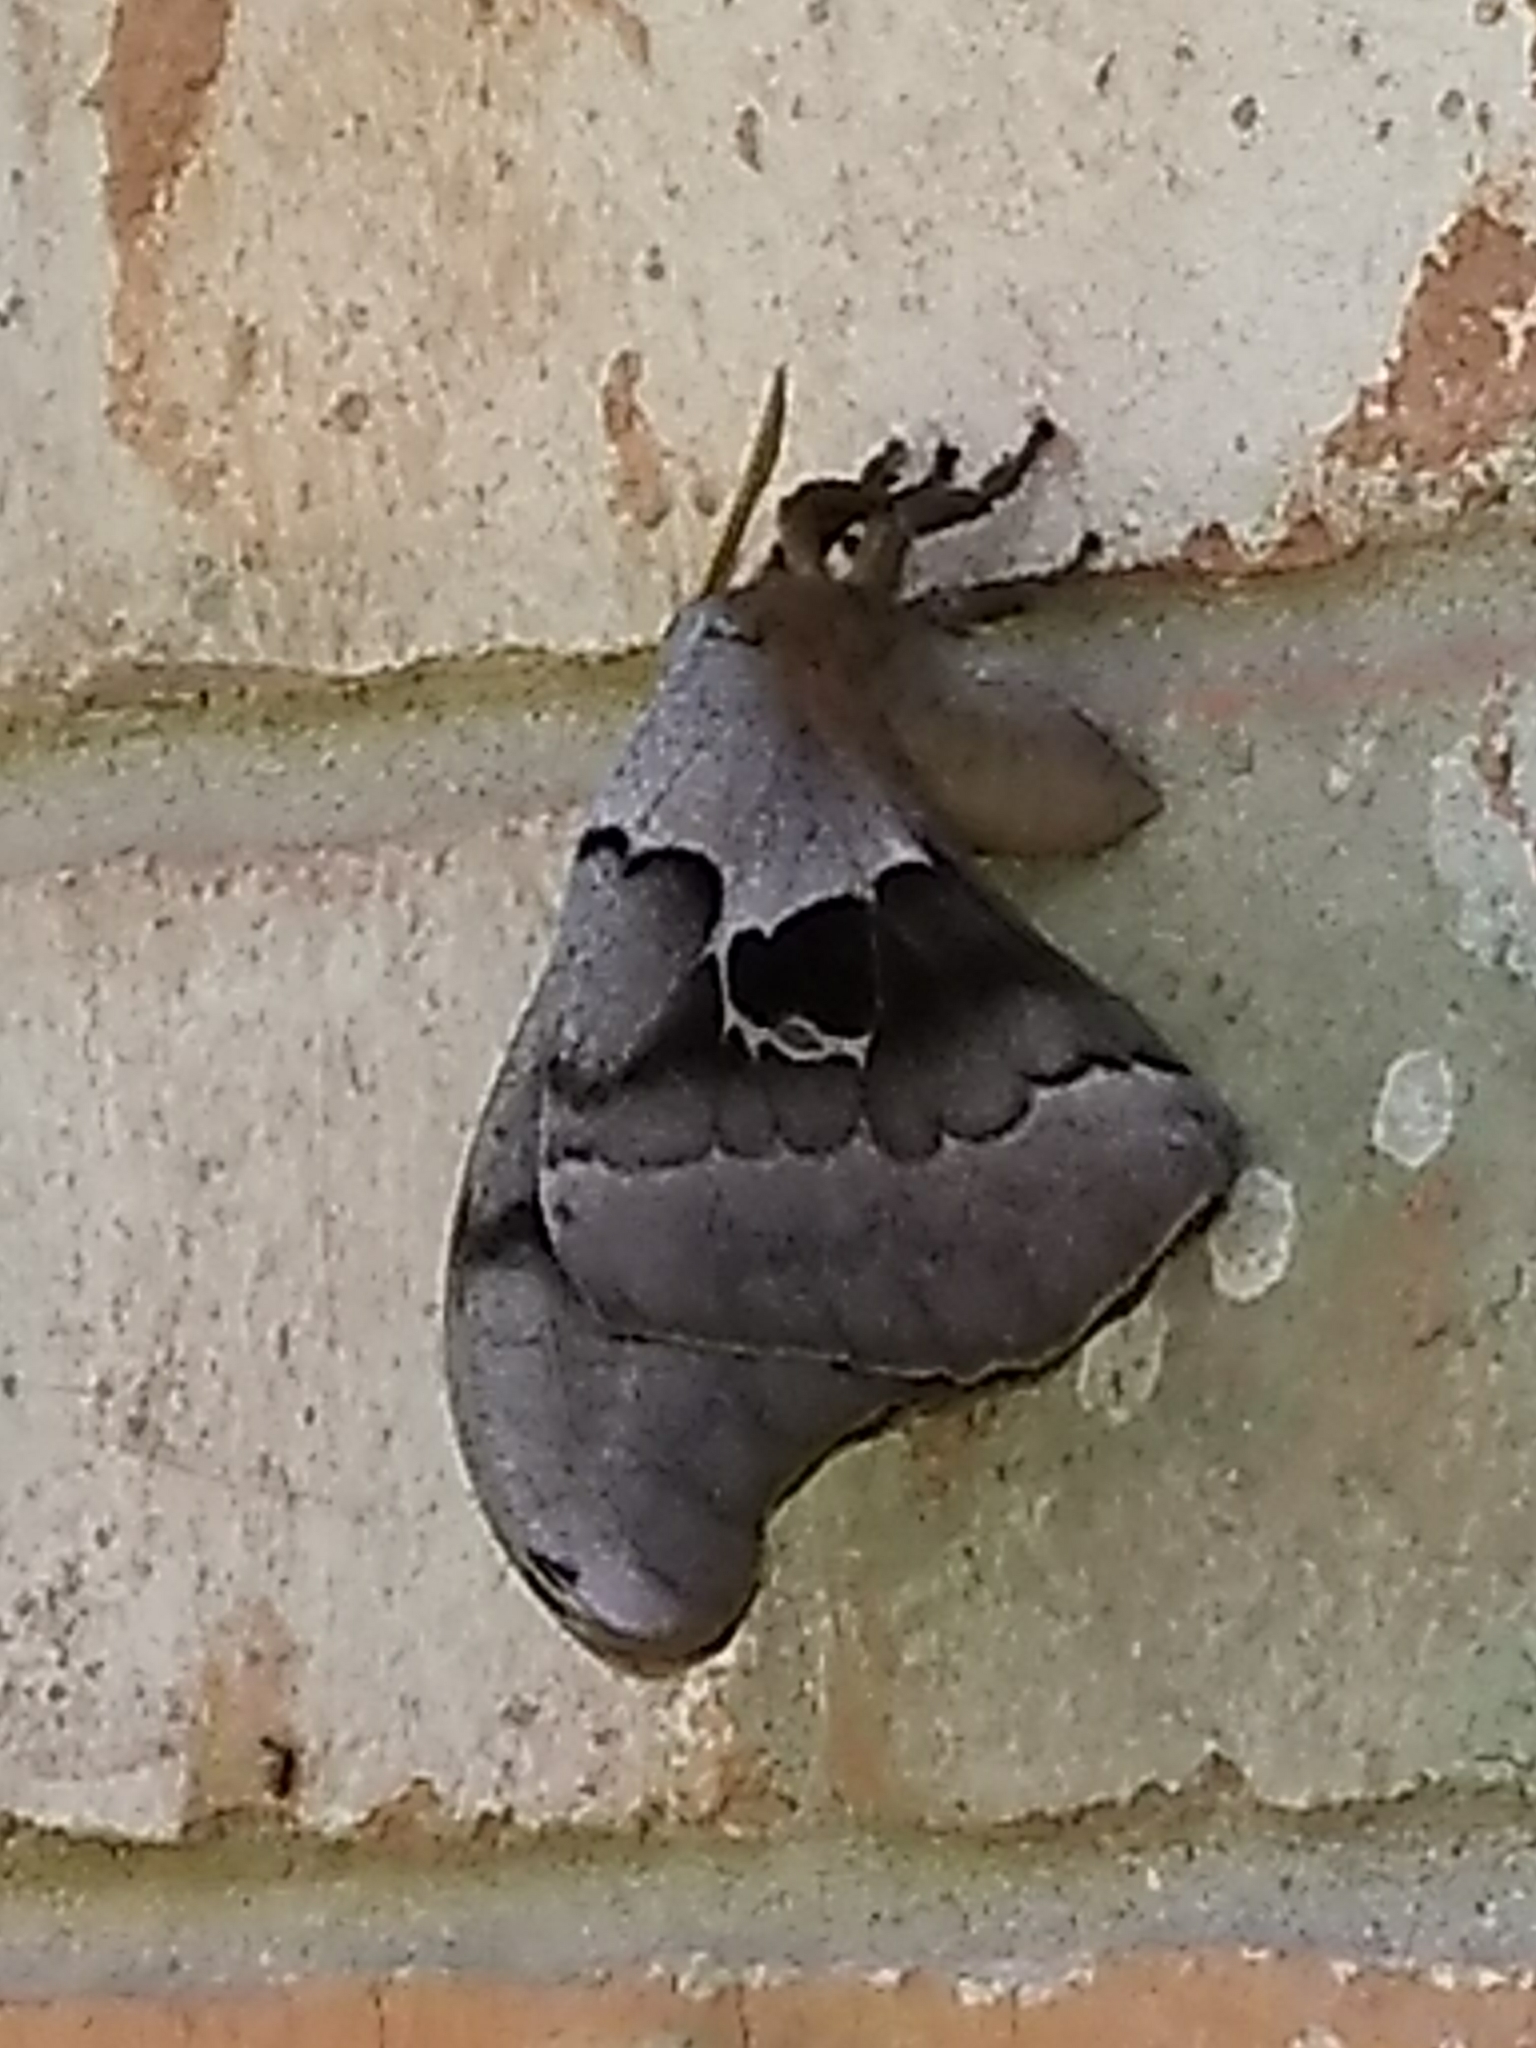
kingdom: Animalia
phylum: Arthropoda
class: Insecta
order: Lepidoptera
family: Saturniidae
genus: Antheraea
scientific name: Antheraea polyphemus
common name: Polyphemus moth
